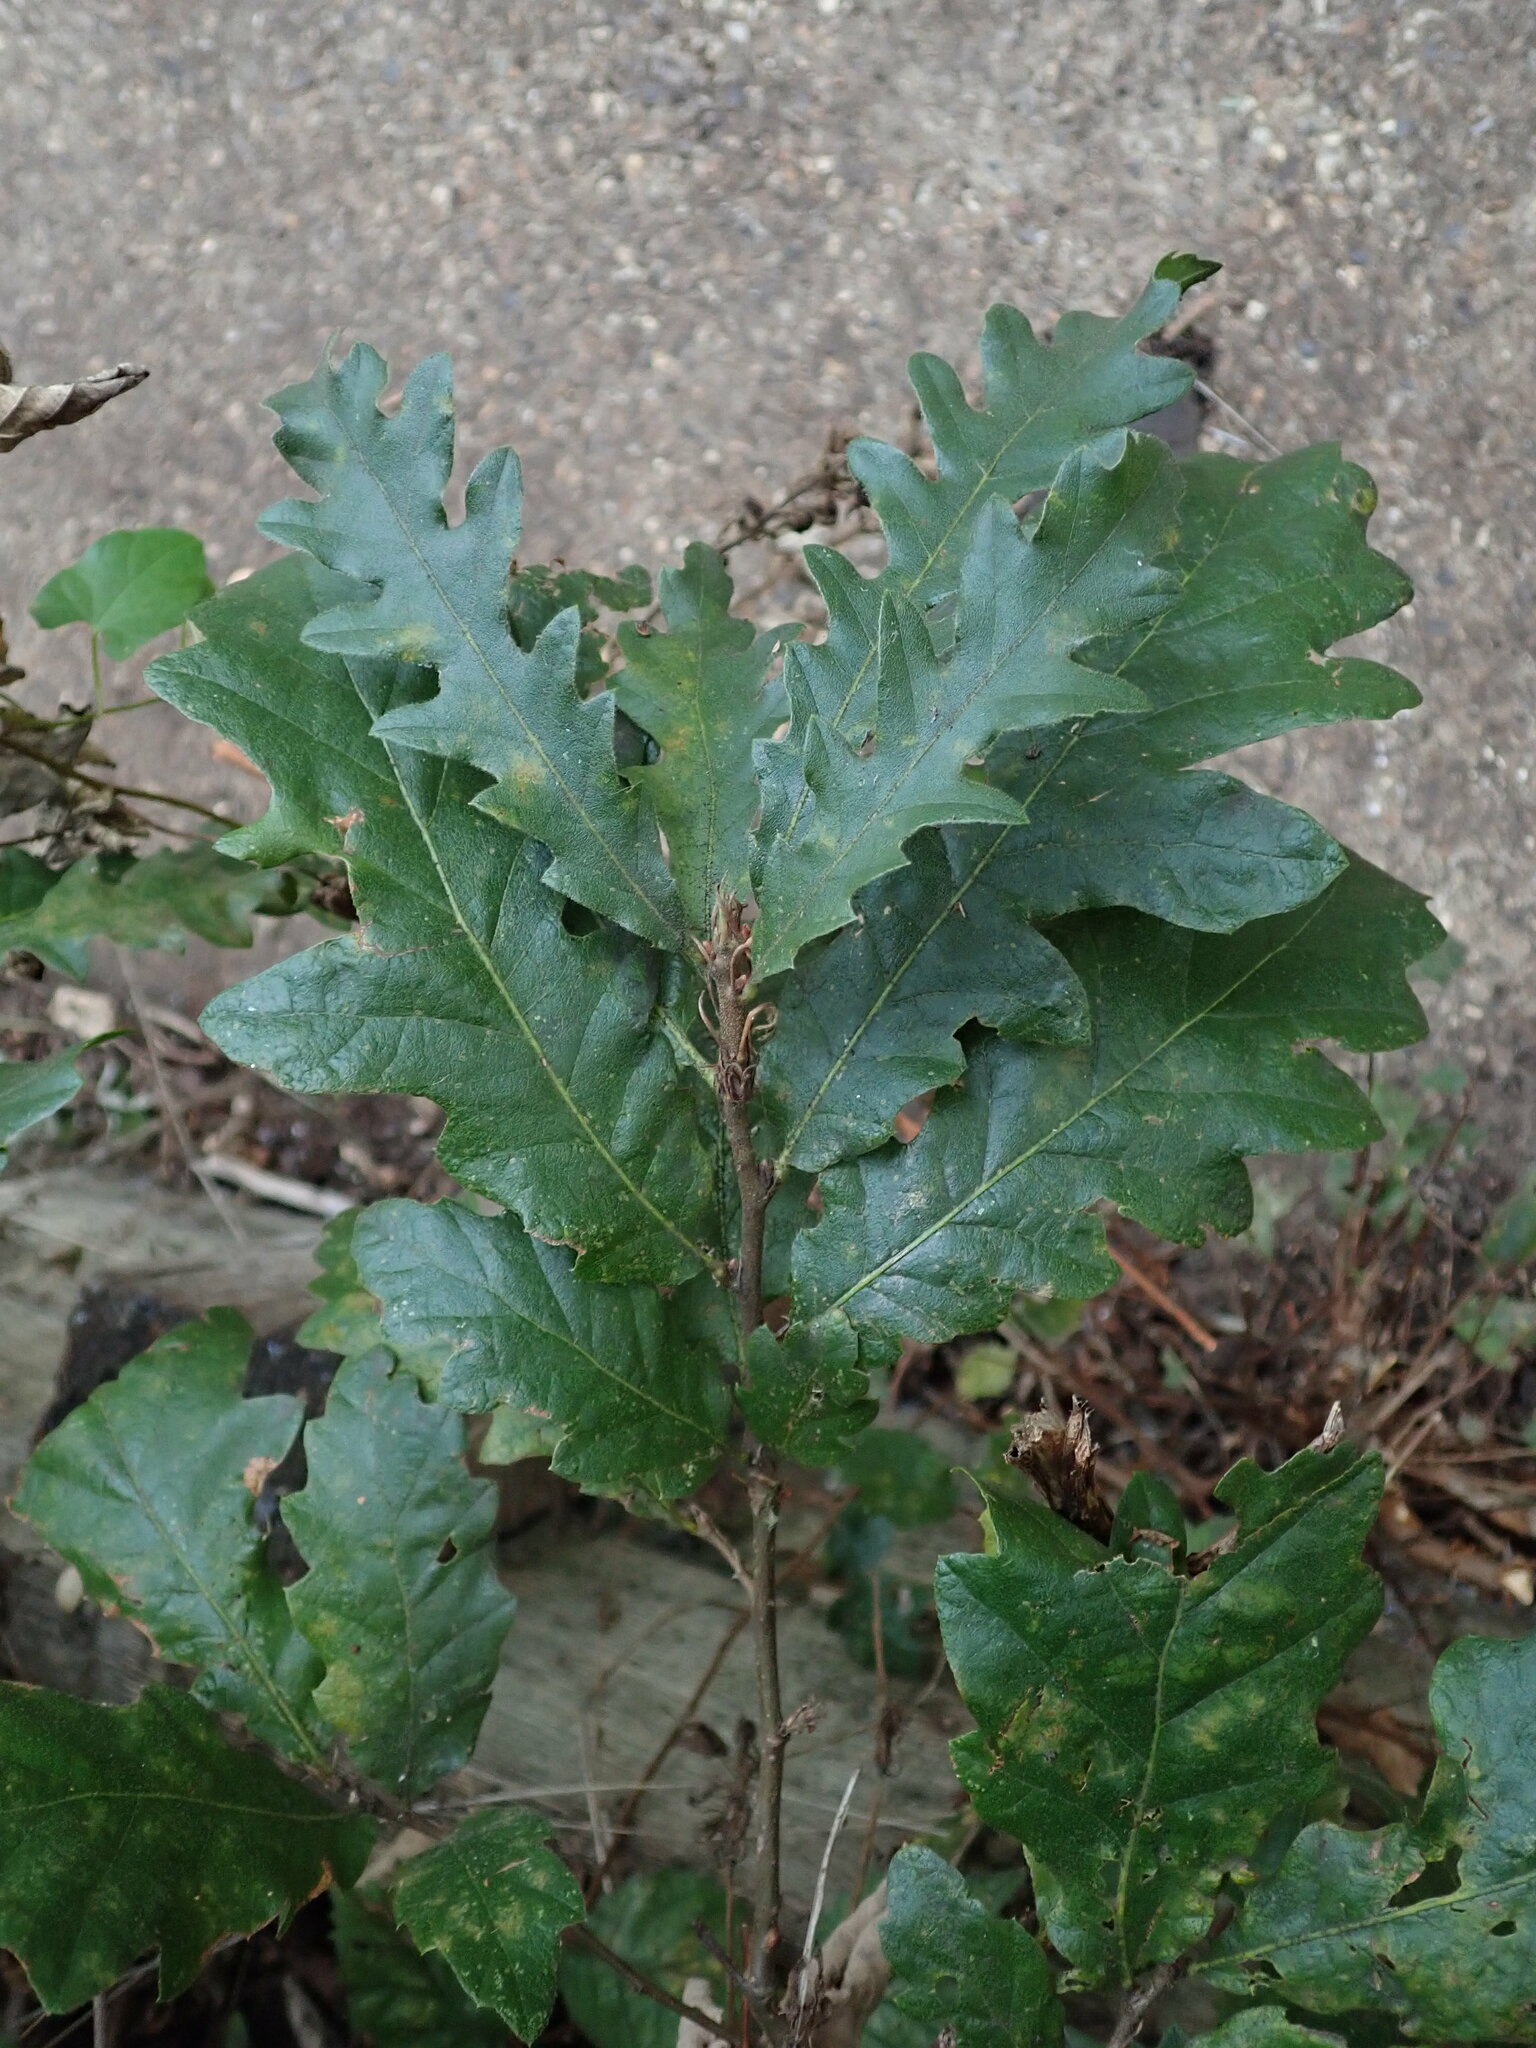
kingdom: Plantae
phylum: Tracheophyta
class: Magnoliopsida
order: Fagales
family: Fagaceae
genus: Quercus
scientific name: Quercus cerris
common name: Turkey oak
